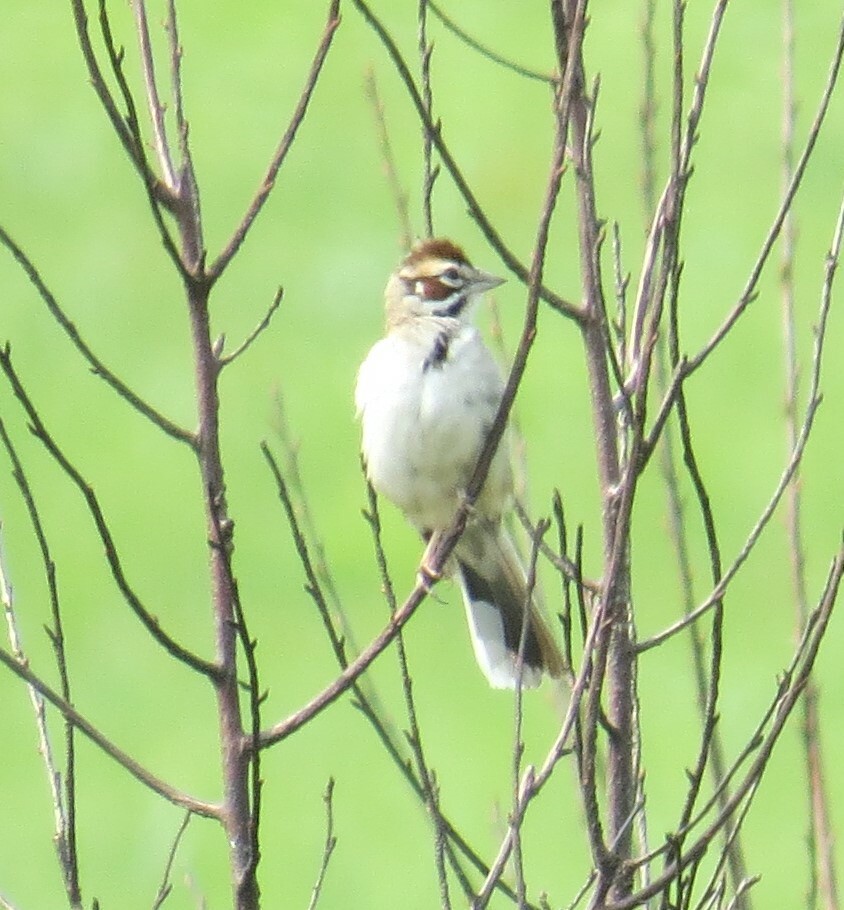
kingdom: Animalia
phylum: Chordata
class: Aves
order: Passeriformes
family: Passerellidae
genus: Chondestes
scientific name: Chondestes grammacus
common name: Lark sparrow
